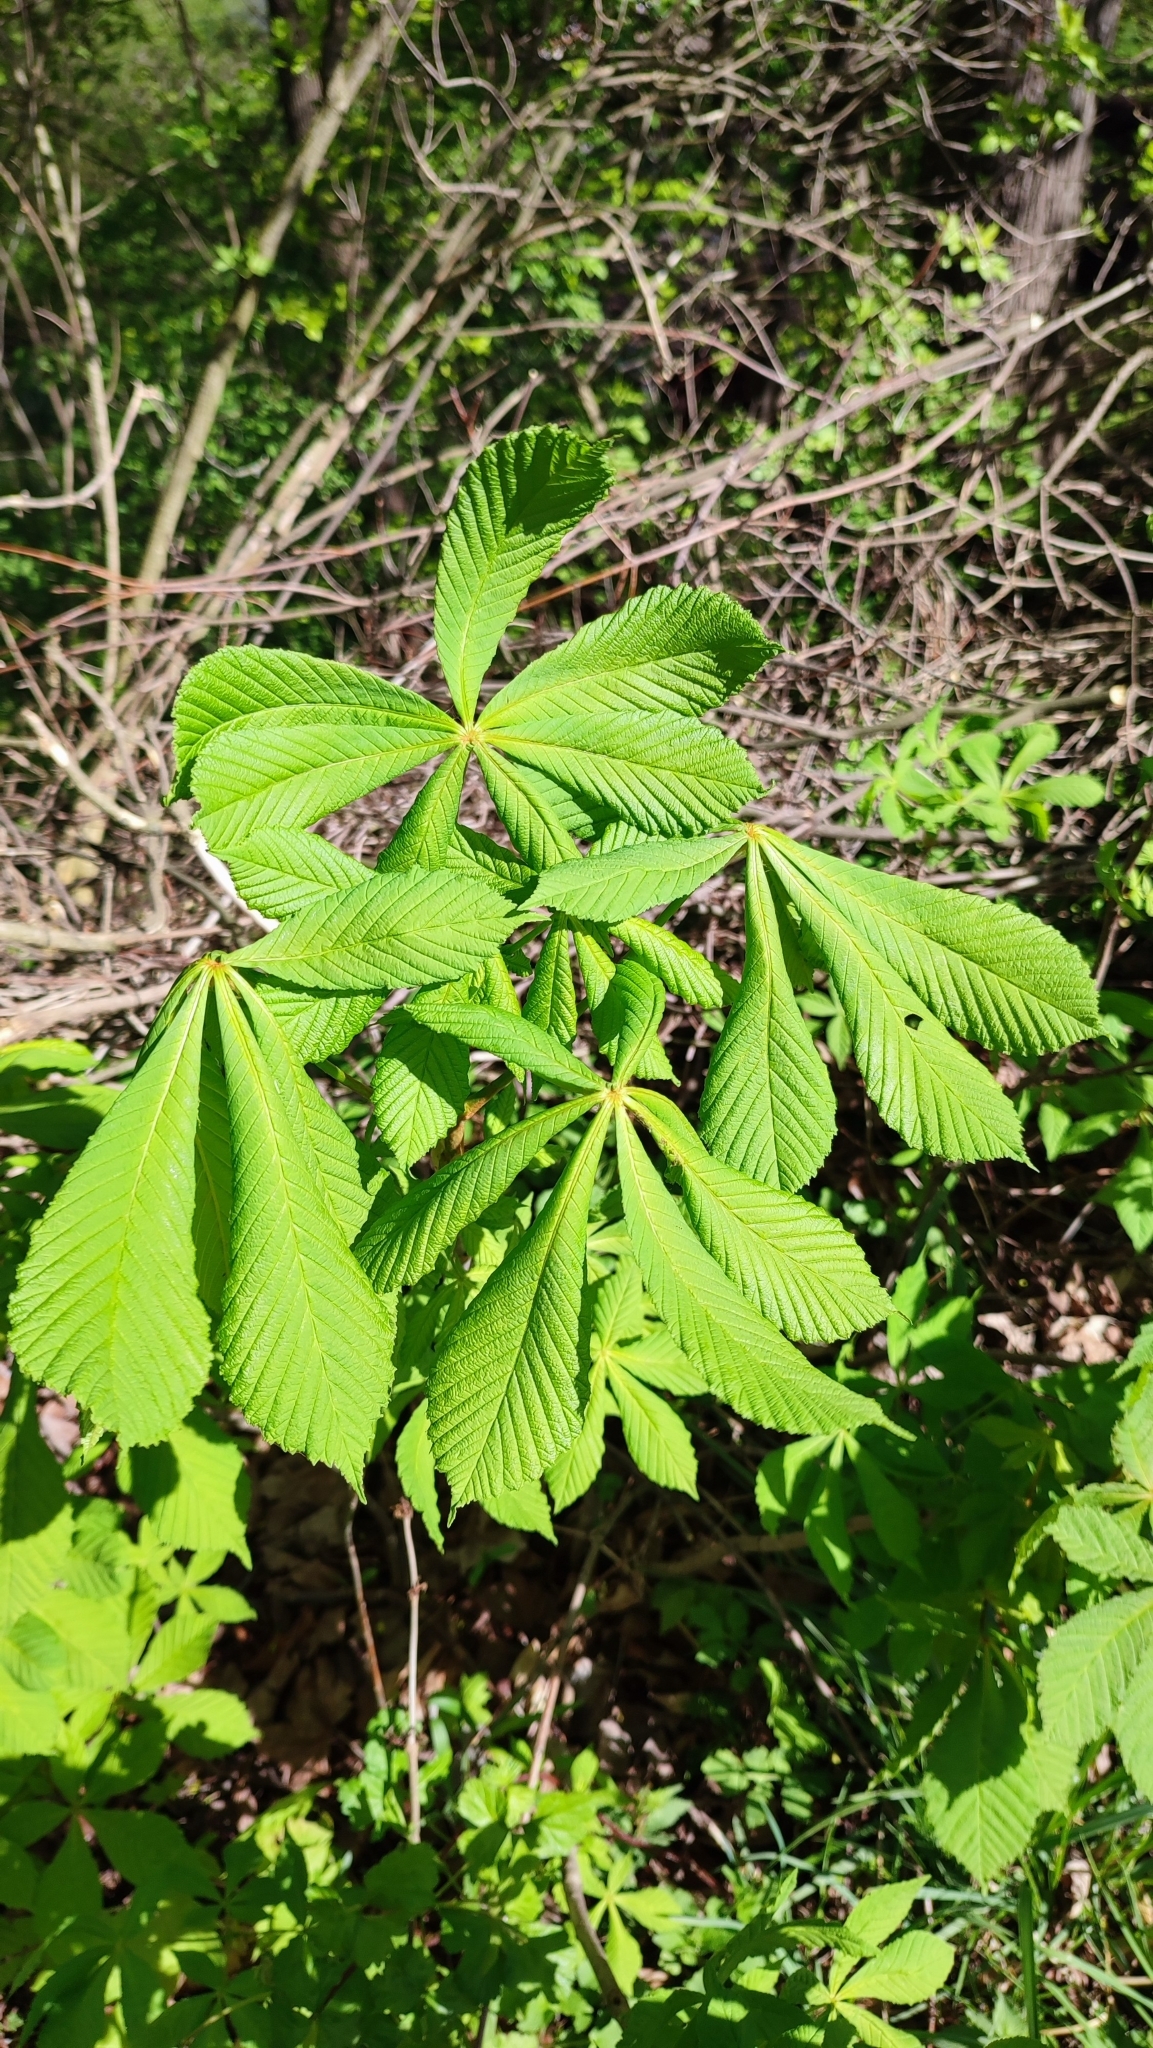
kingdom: Plantae
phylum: Tracheophyta
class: Magnoliopsida
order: Sapindales
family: Sapindaceae
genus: Aesculus
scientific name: Aesculus hippocastanum
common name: Horse-chestnut
